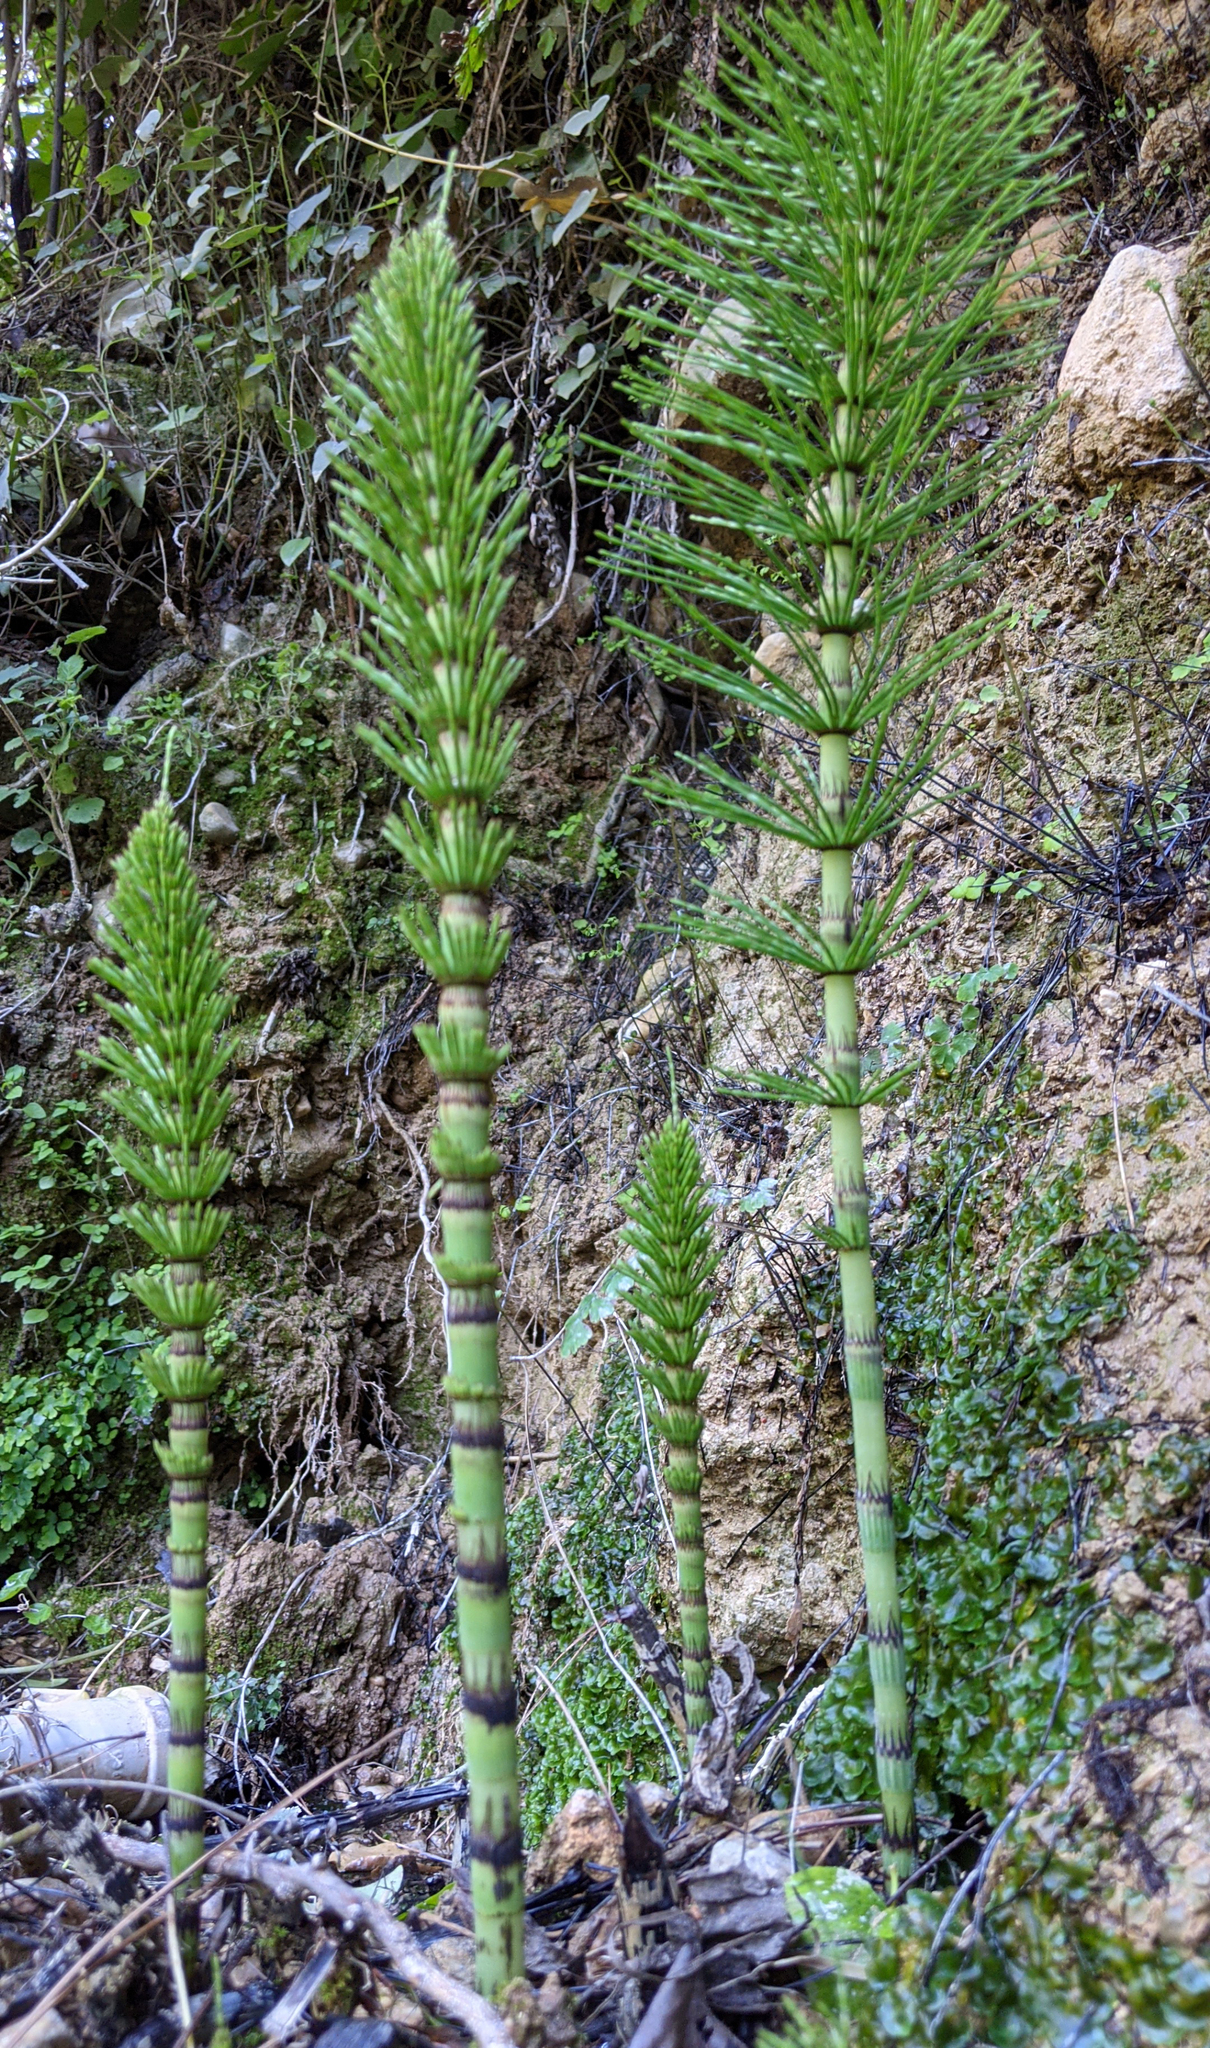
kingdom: Plantae
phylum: Tracheophyta
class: Polypodiopsida
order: Equisetales
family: Equisetaceae
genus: Equisetum
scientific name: Equisetum telmateia
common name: Great horsetail
